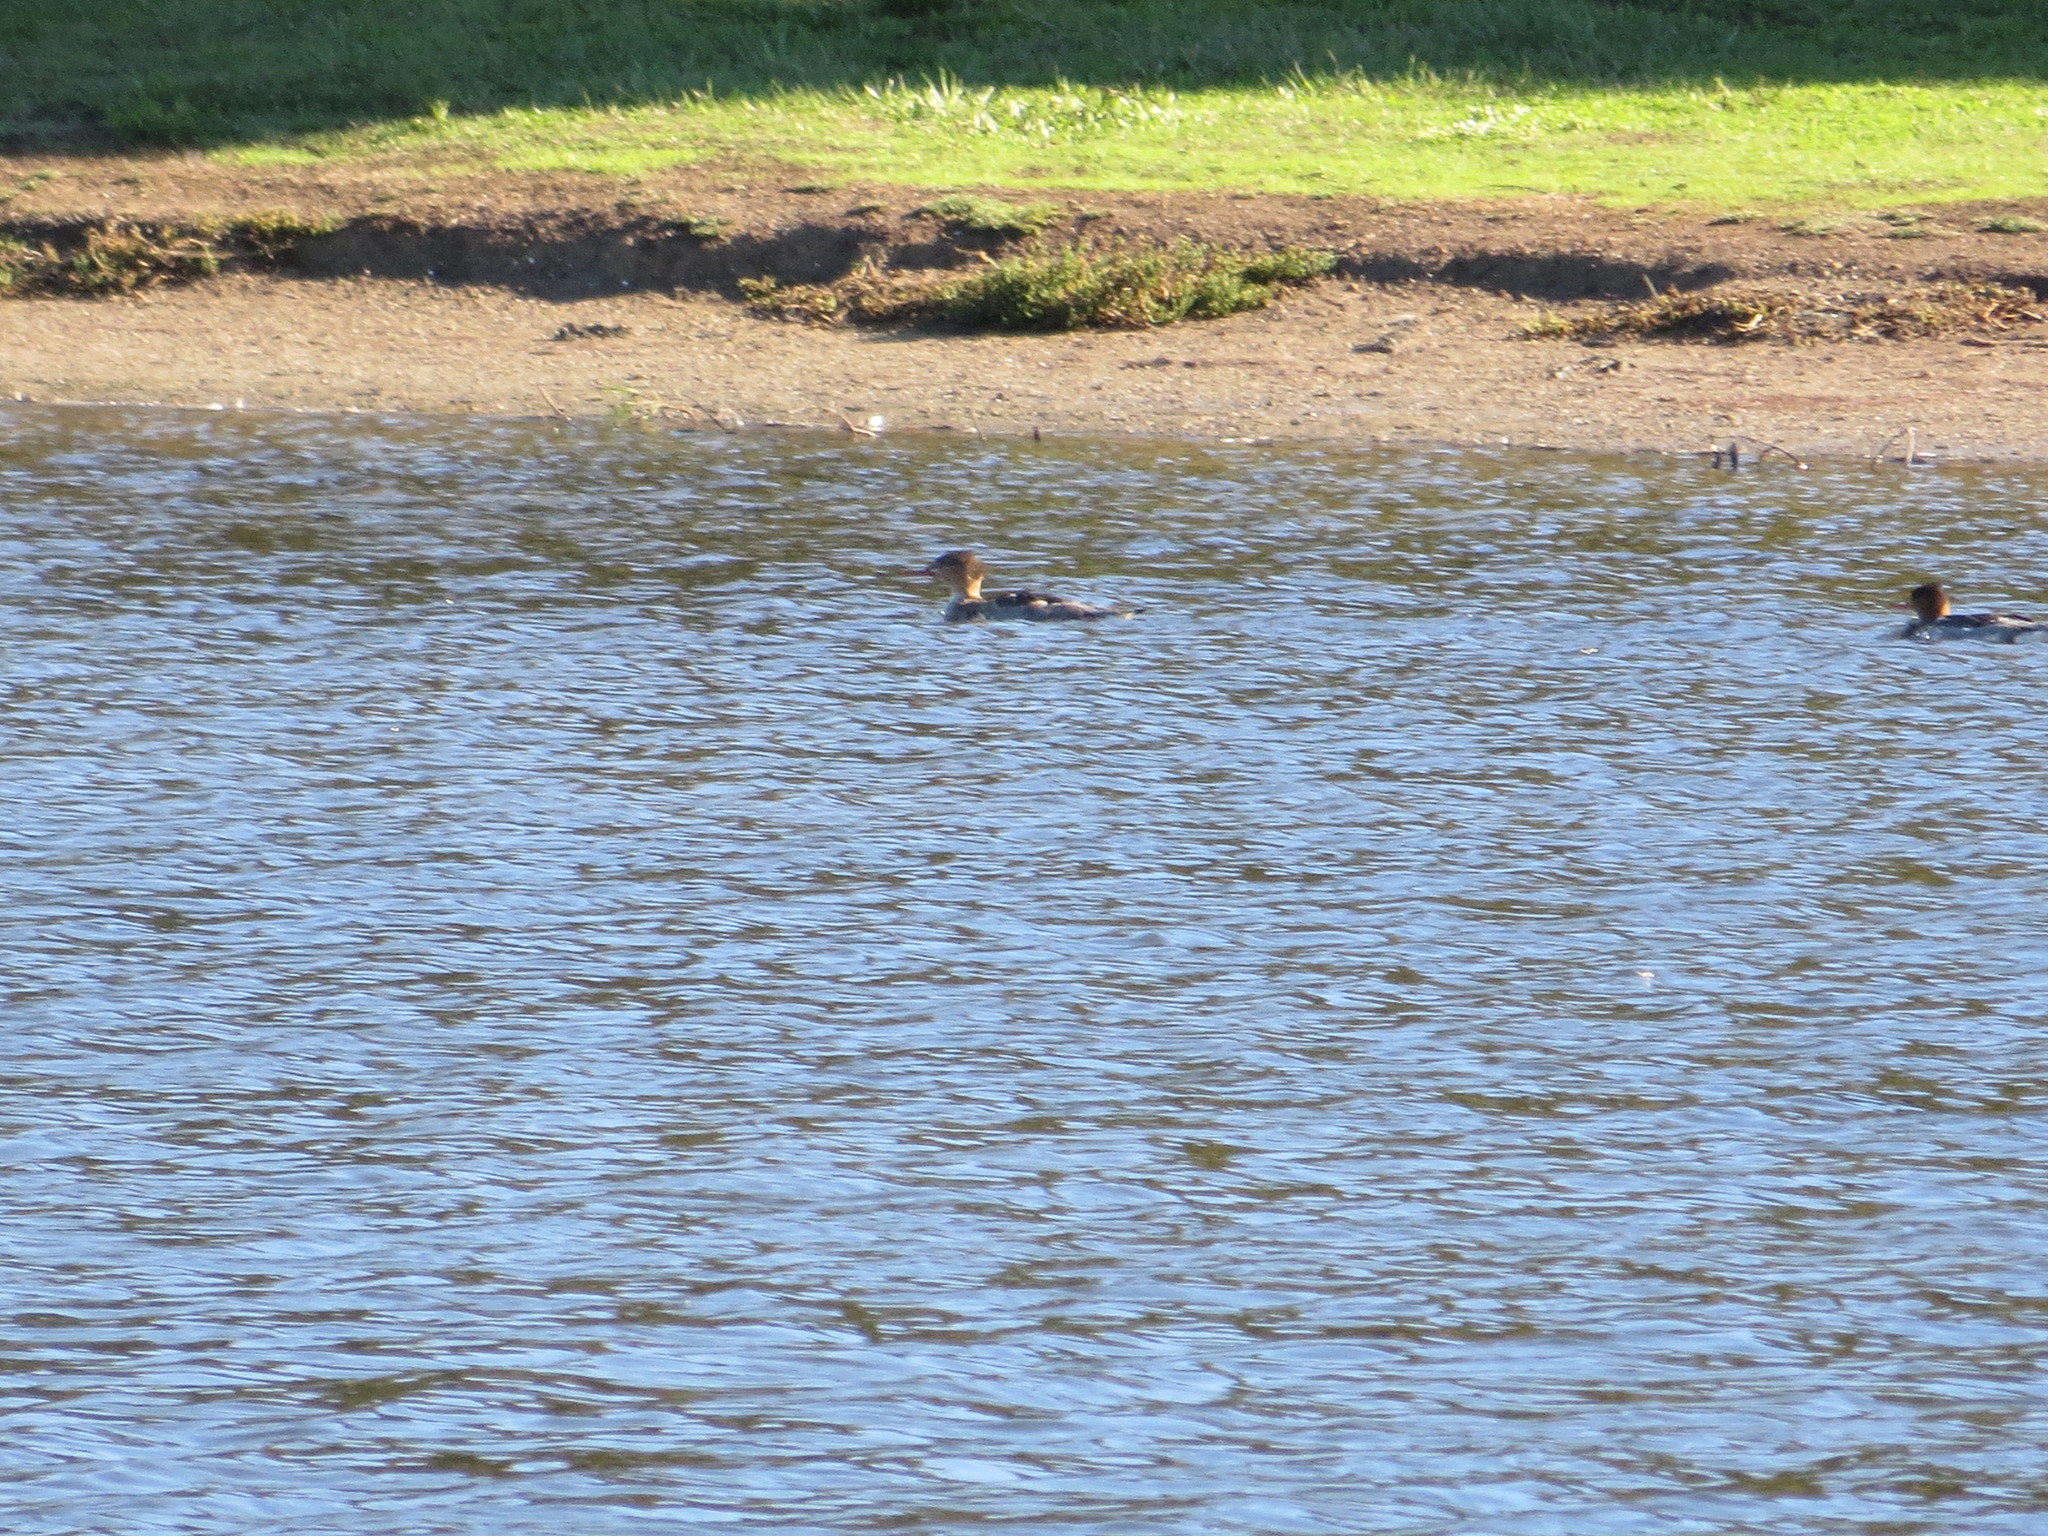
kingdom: Animalia
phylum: Chordata
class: Aves
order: Anseriformes
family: Anatidae
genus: Mergus
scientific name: Mergus serrator
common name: Red-breasted merganser
